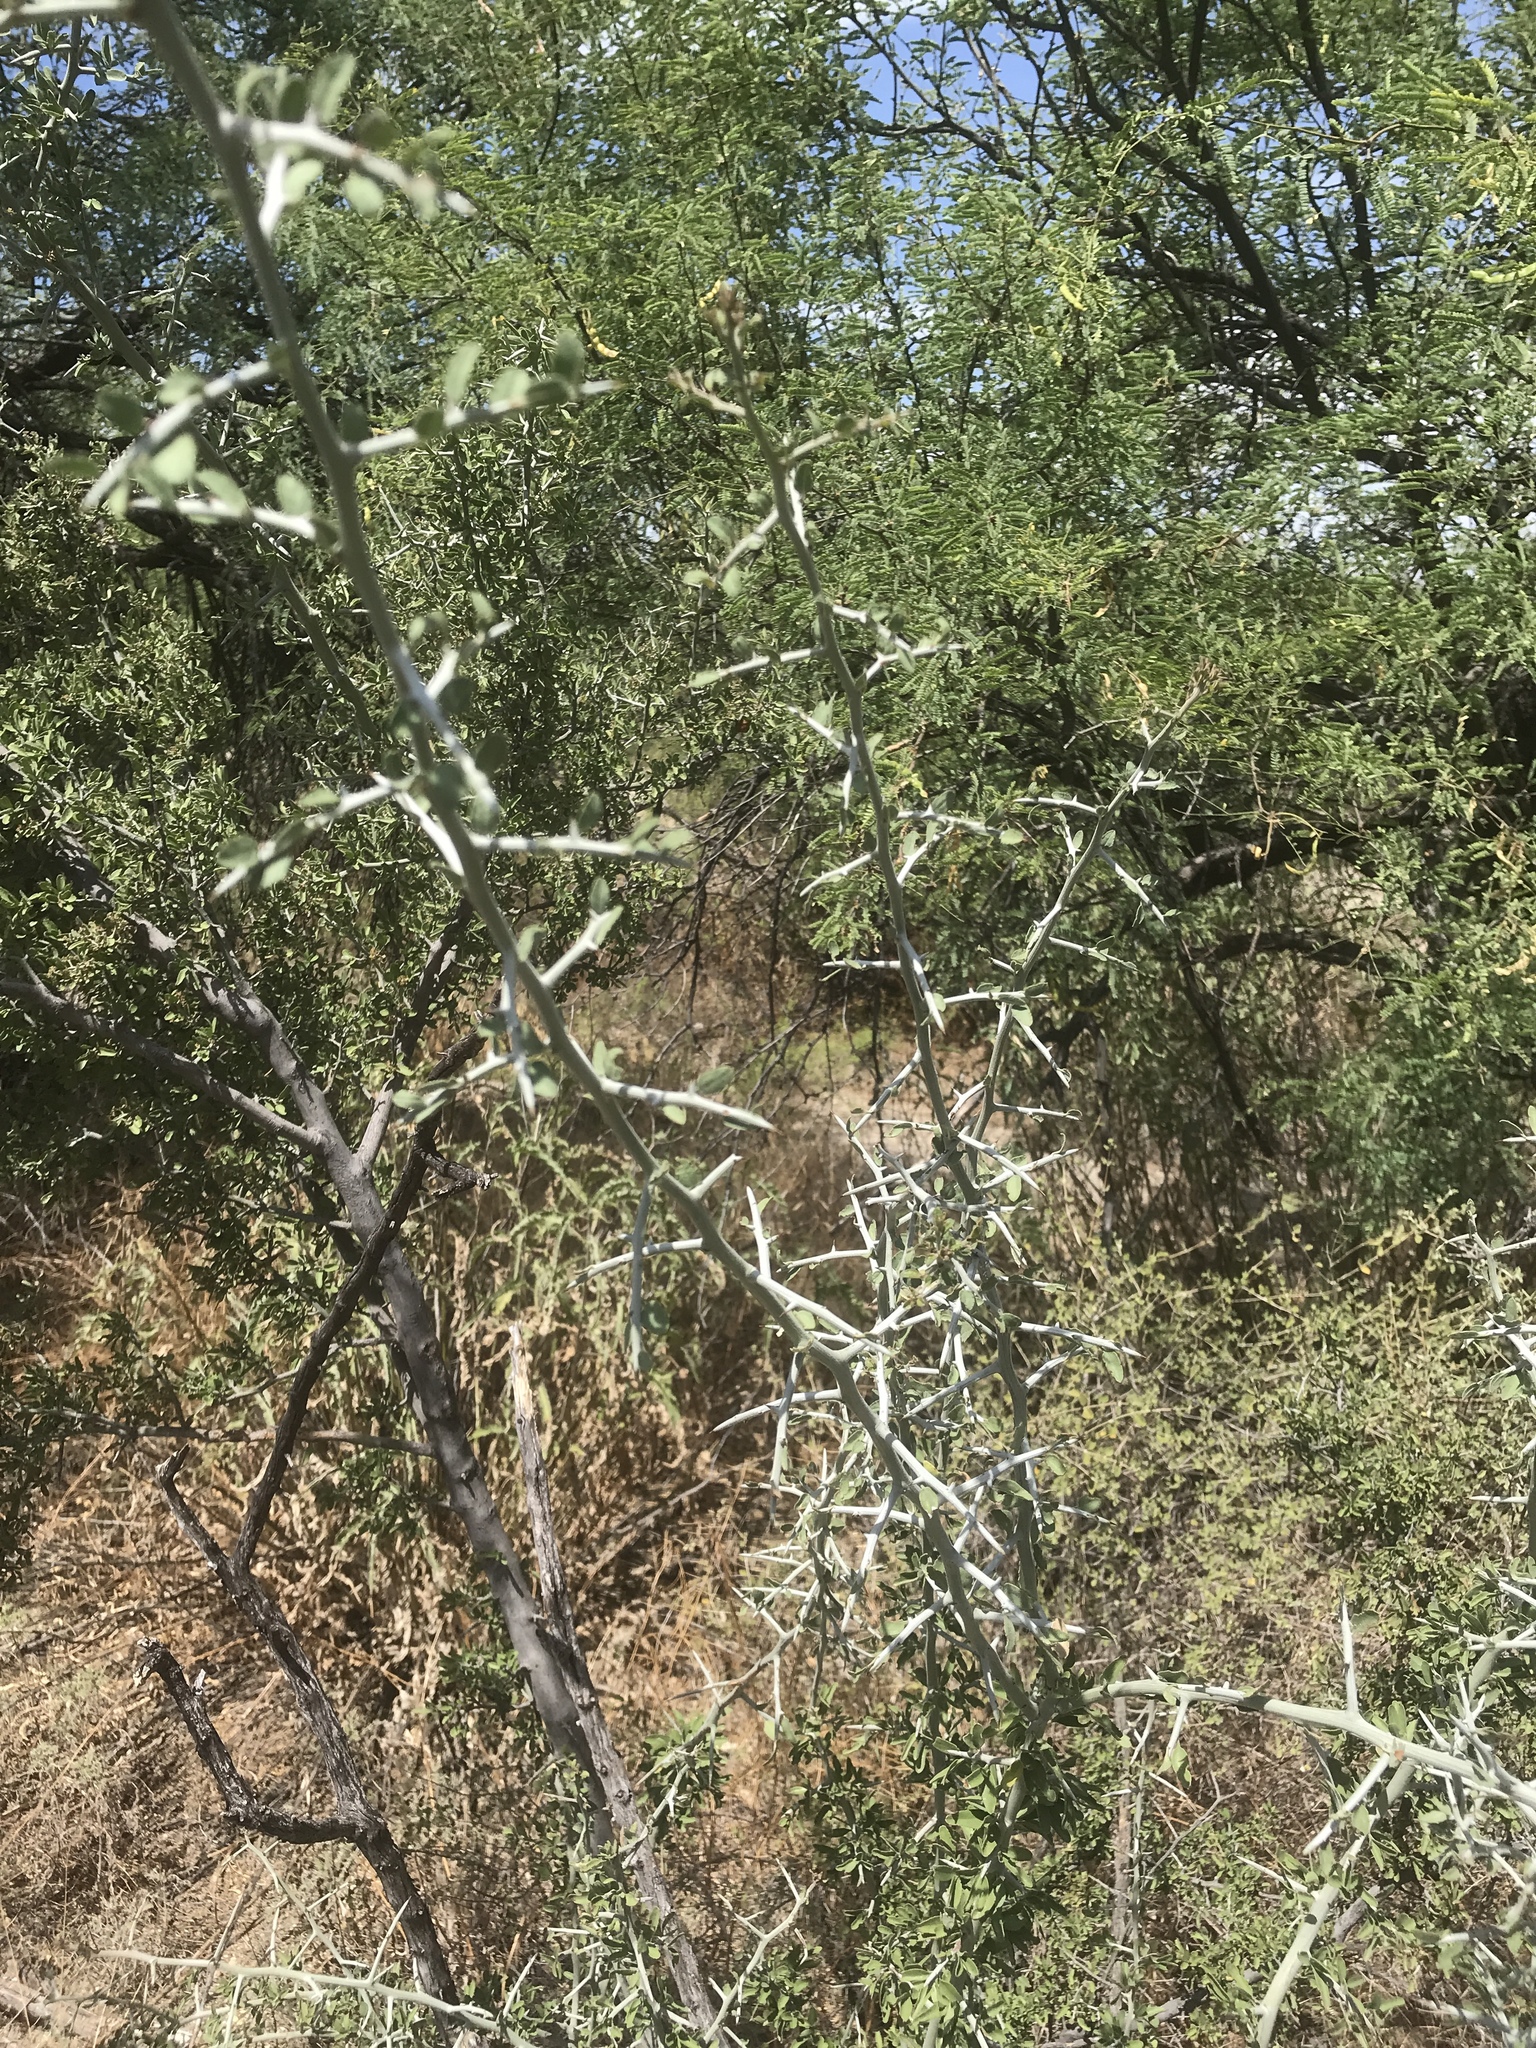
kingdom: Plantae
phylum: Tracheophyta
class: Magnoliopsida
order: Rosales
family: Rhamnaceae
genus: Sarcomphalus
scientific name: Sarcomphalus obtusifolius
